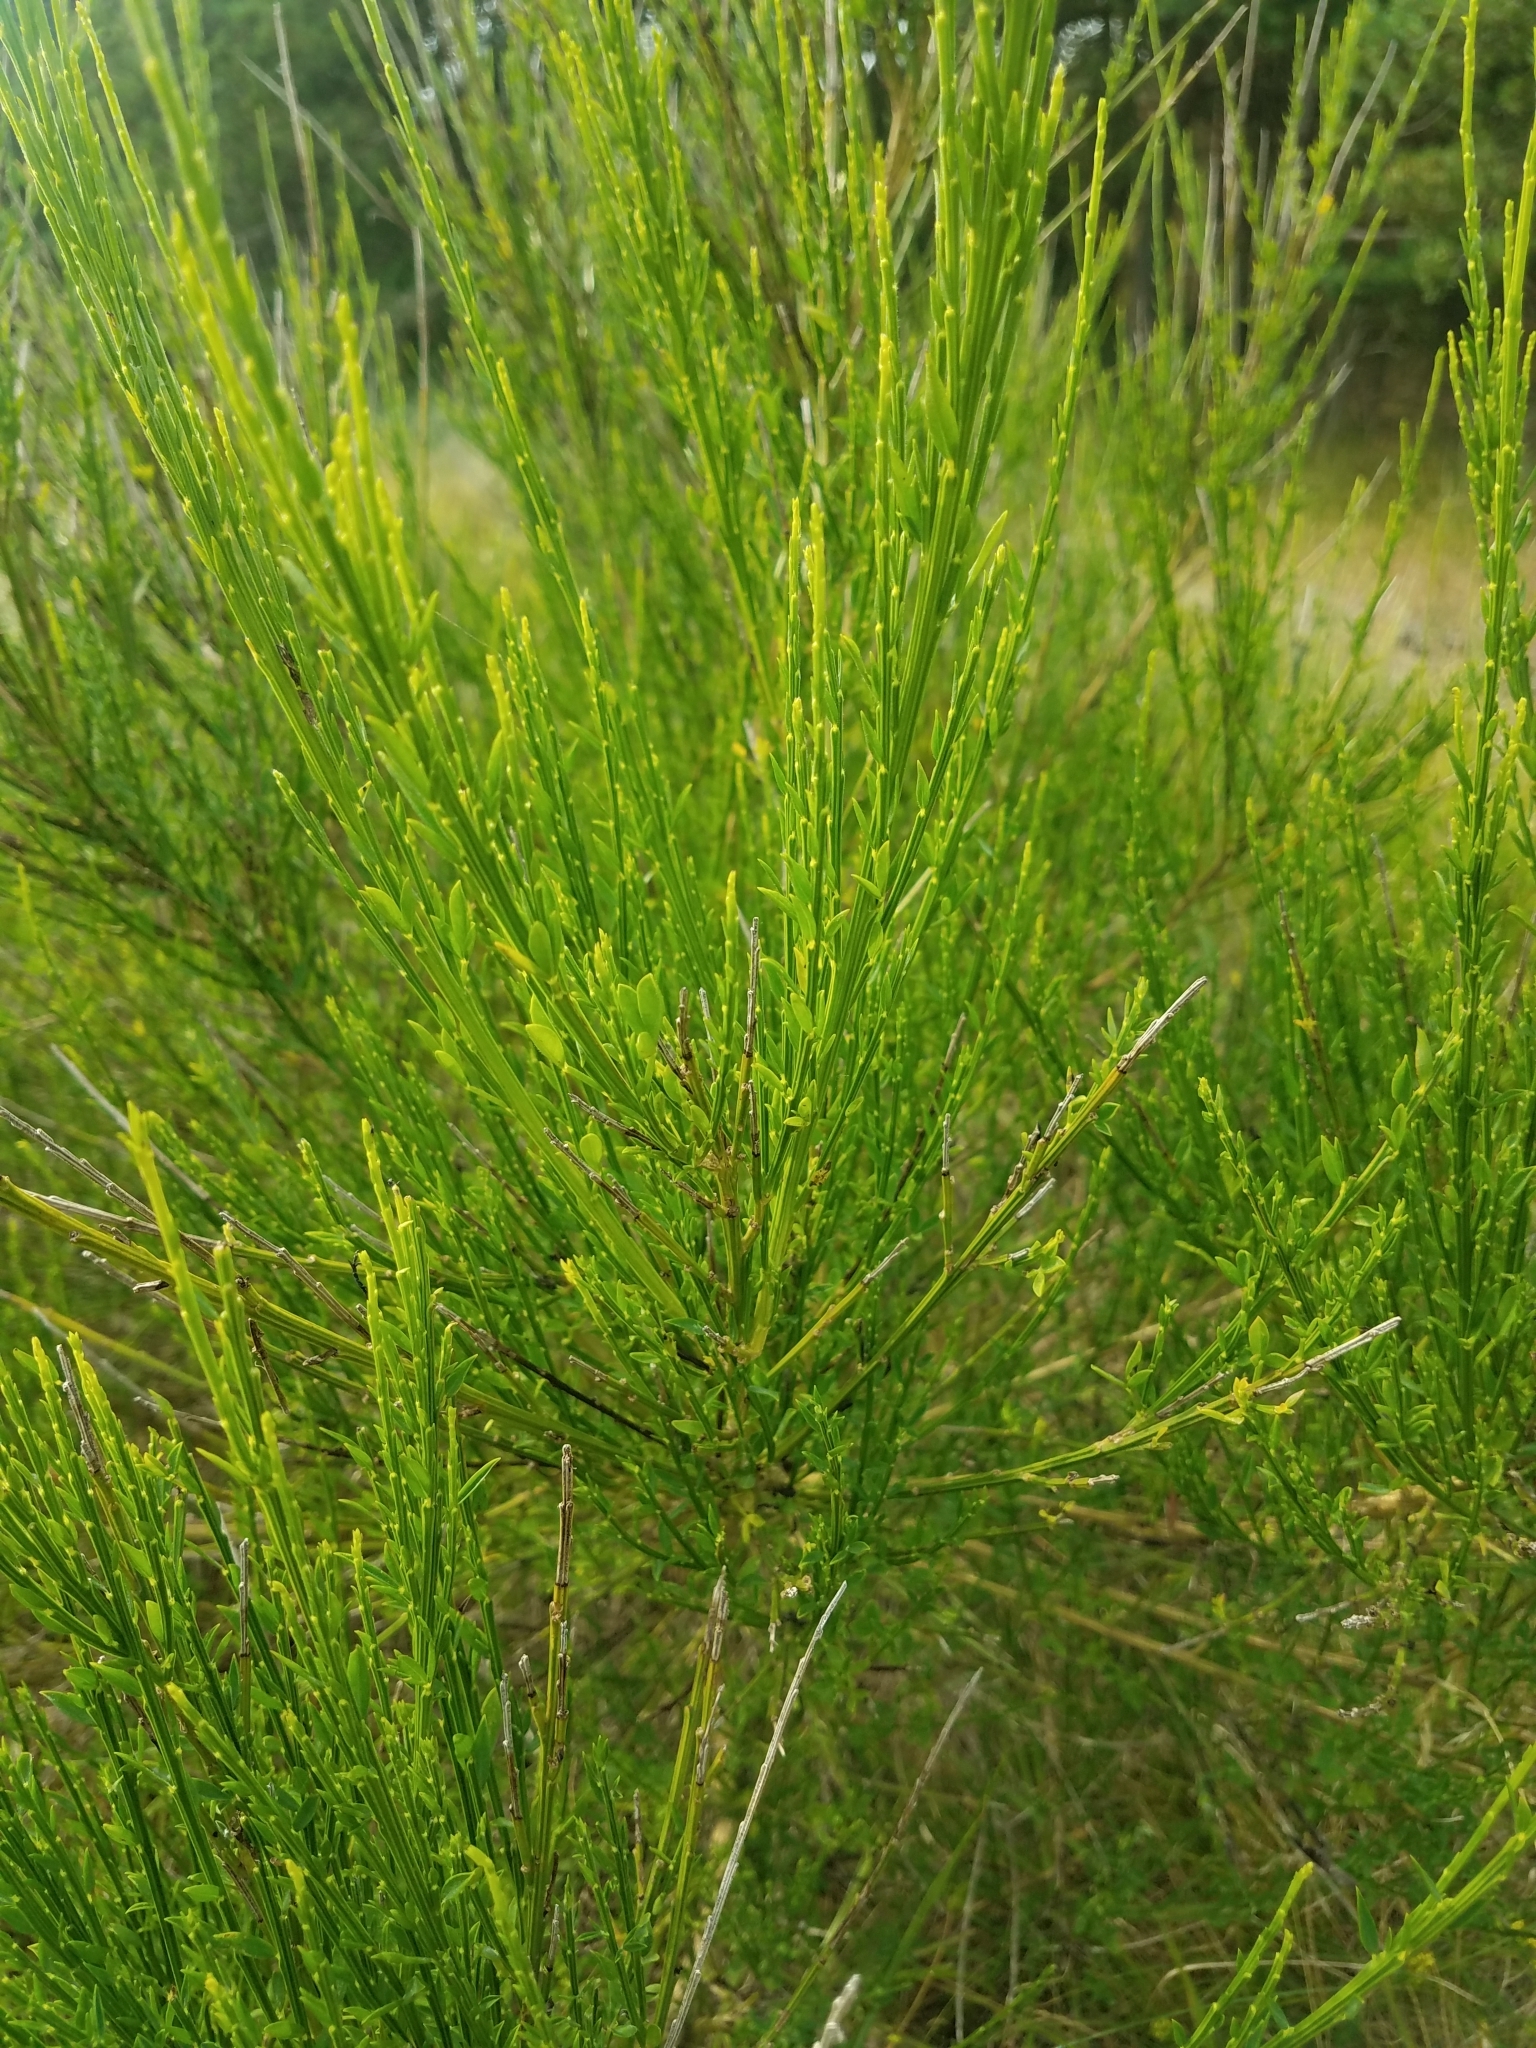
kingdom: Plantae
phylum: Tracheophyta
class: Magnoliopsida
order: Fabales
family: Fabaceae
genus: Cytisus
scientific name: Cytisus scoparius
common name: Scotch broom
